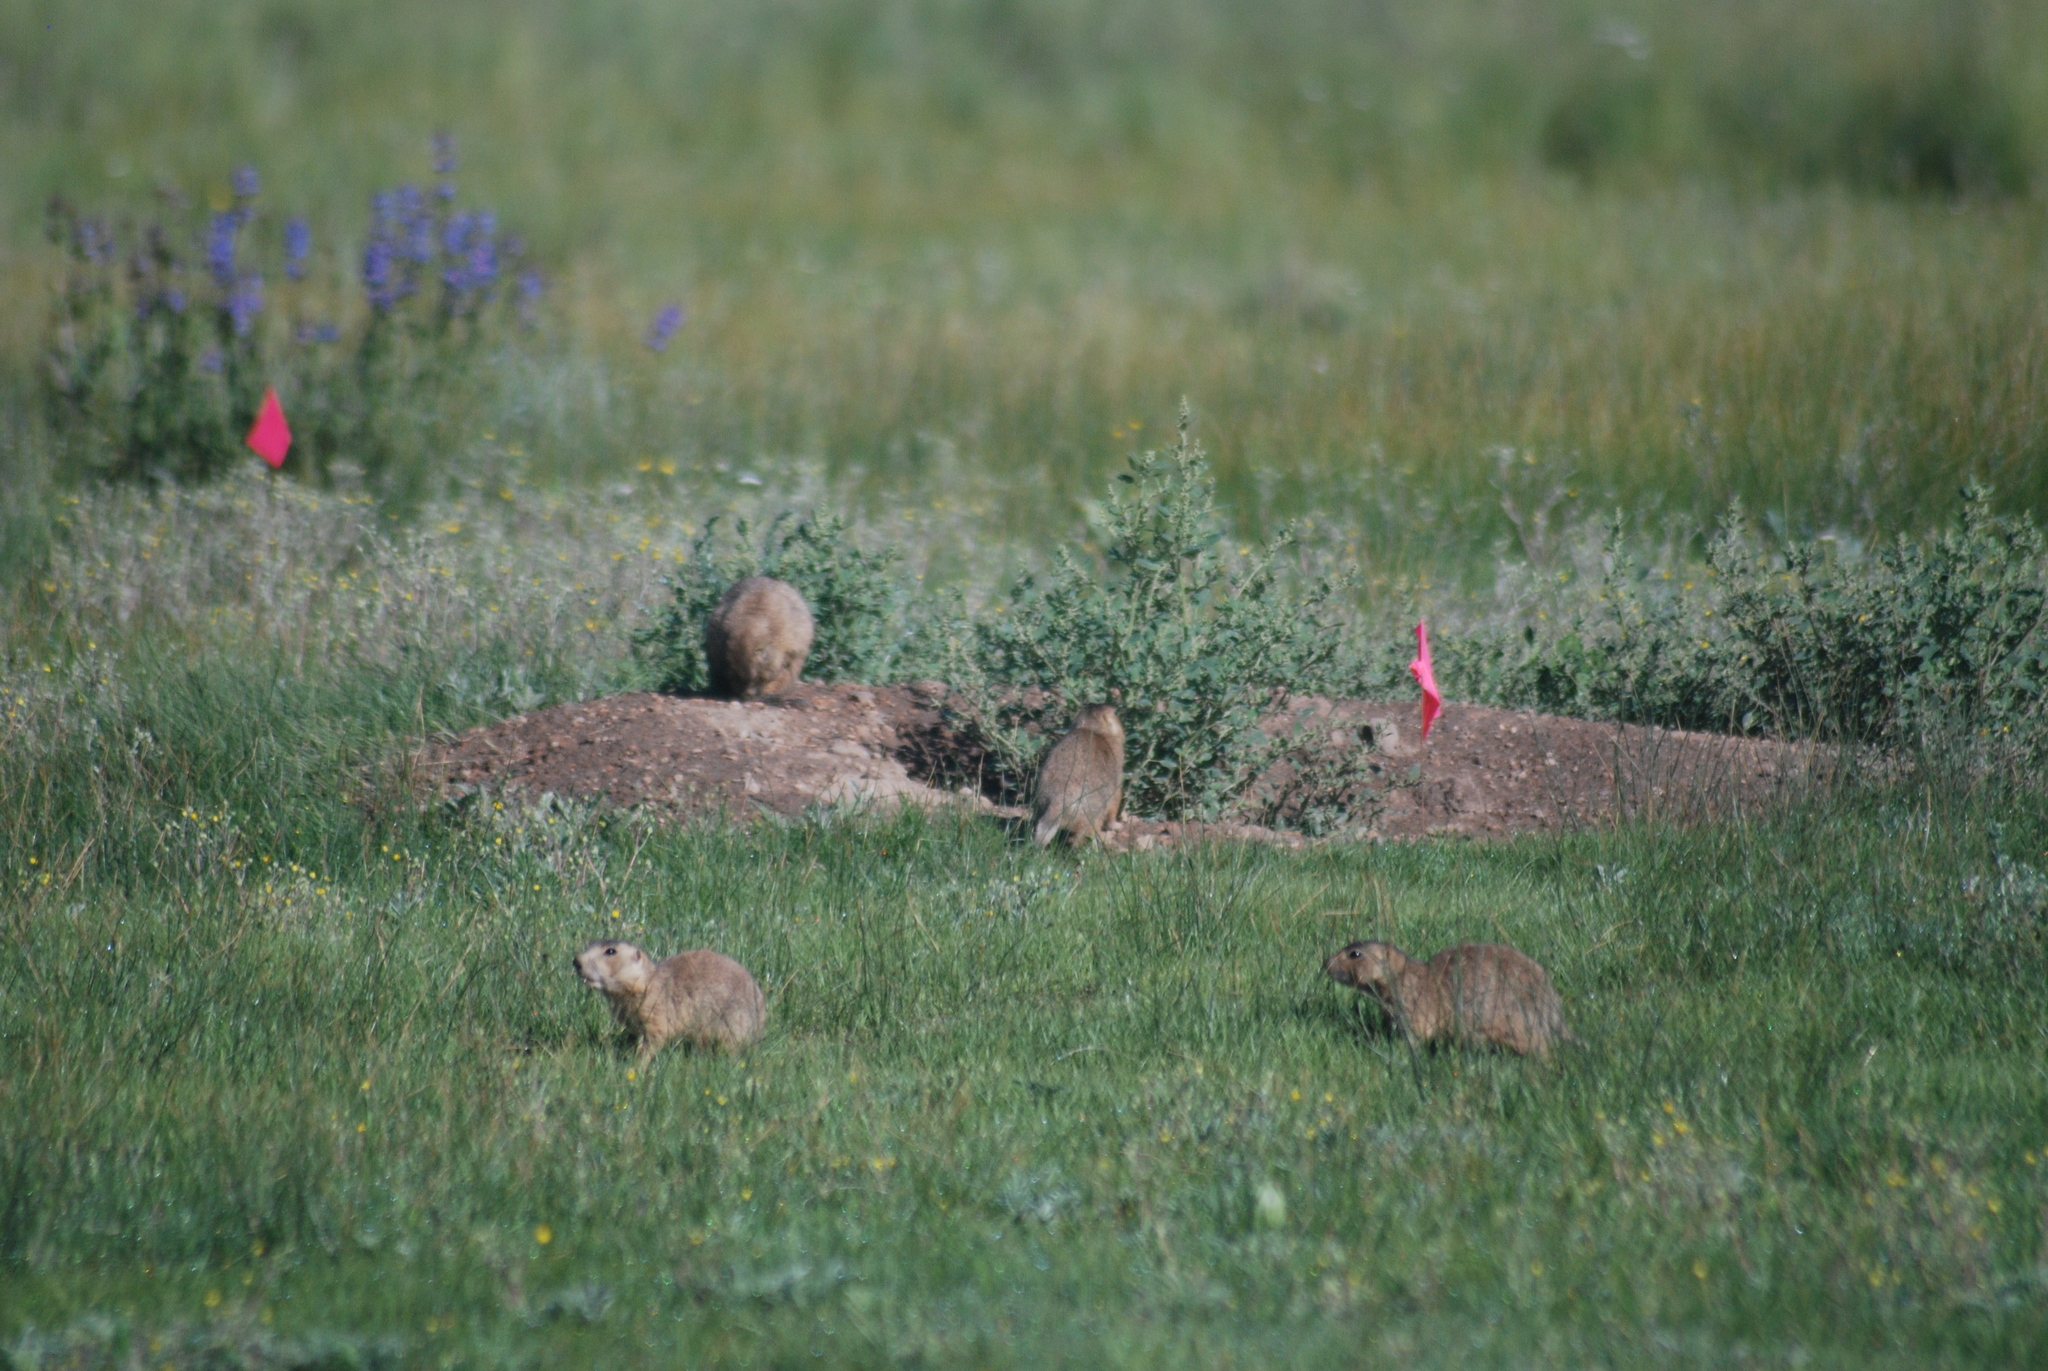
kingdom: Animalia
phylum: Chordata
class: Mammalia
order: Rodentia
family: Sciuridae
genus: Cynomys
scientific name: Cynomys gunnisoni
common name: Gunnison's prairie dog
